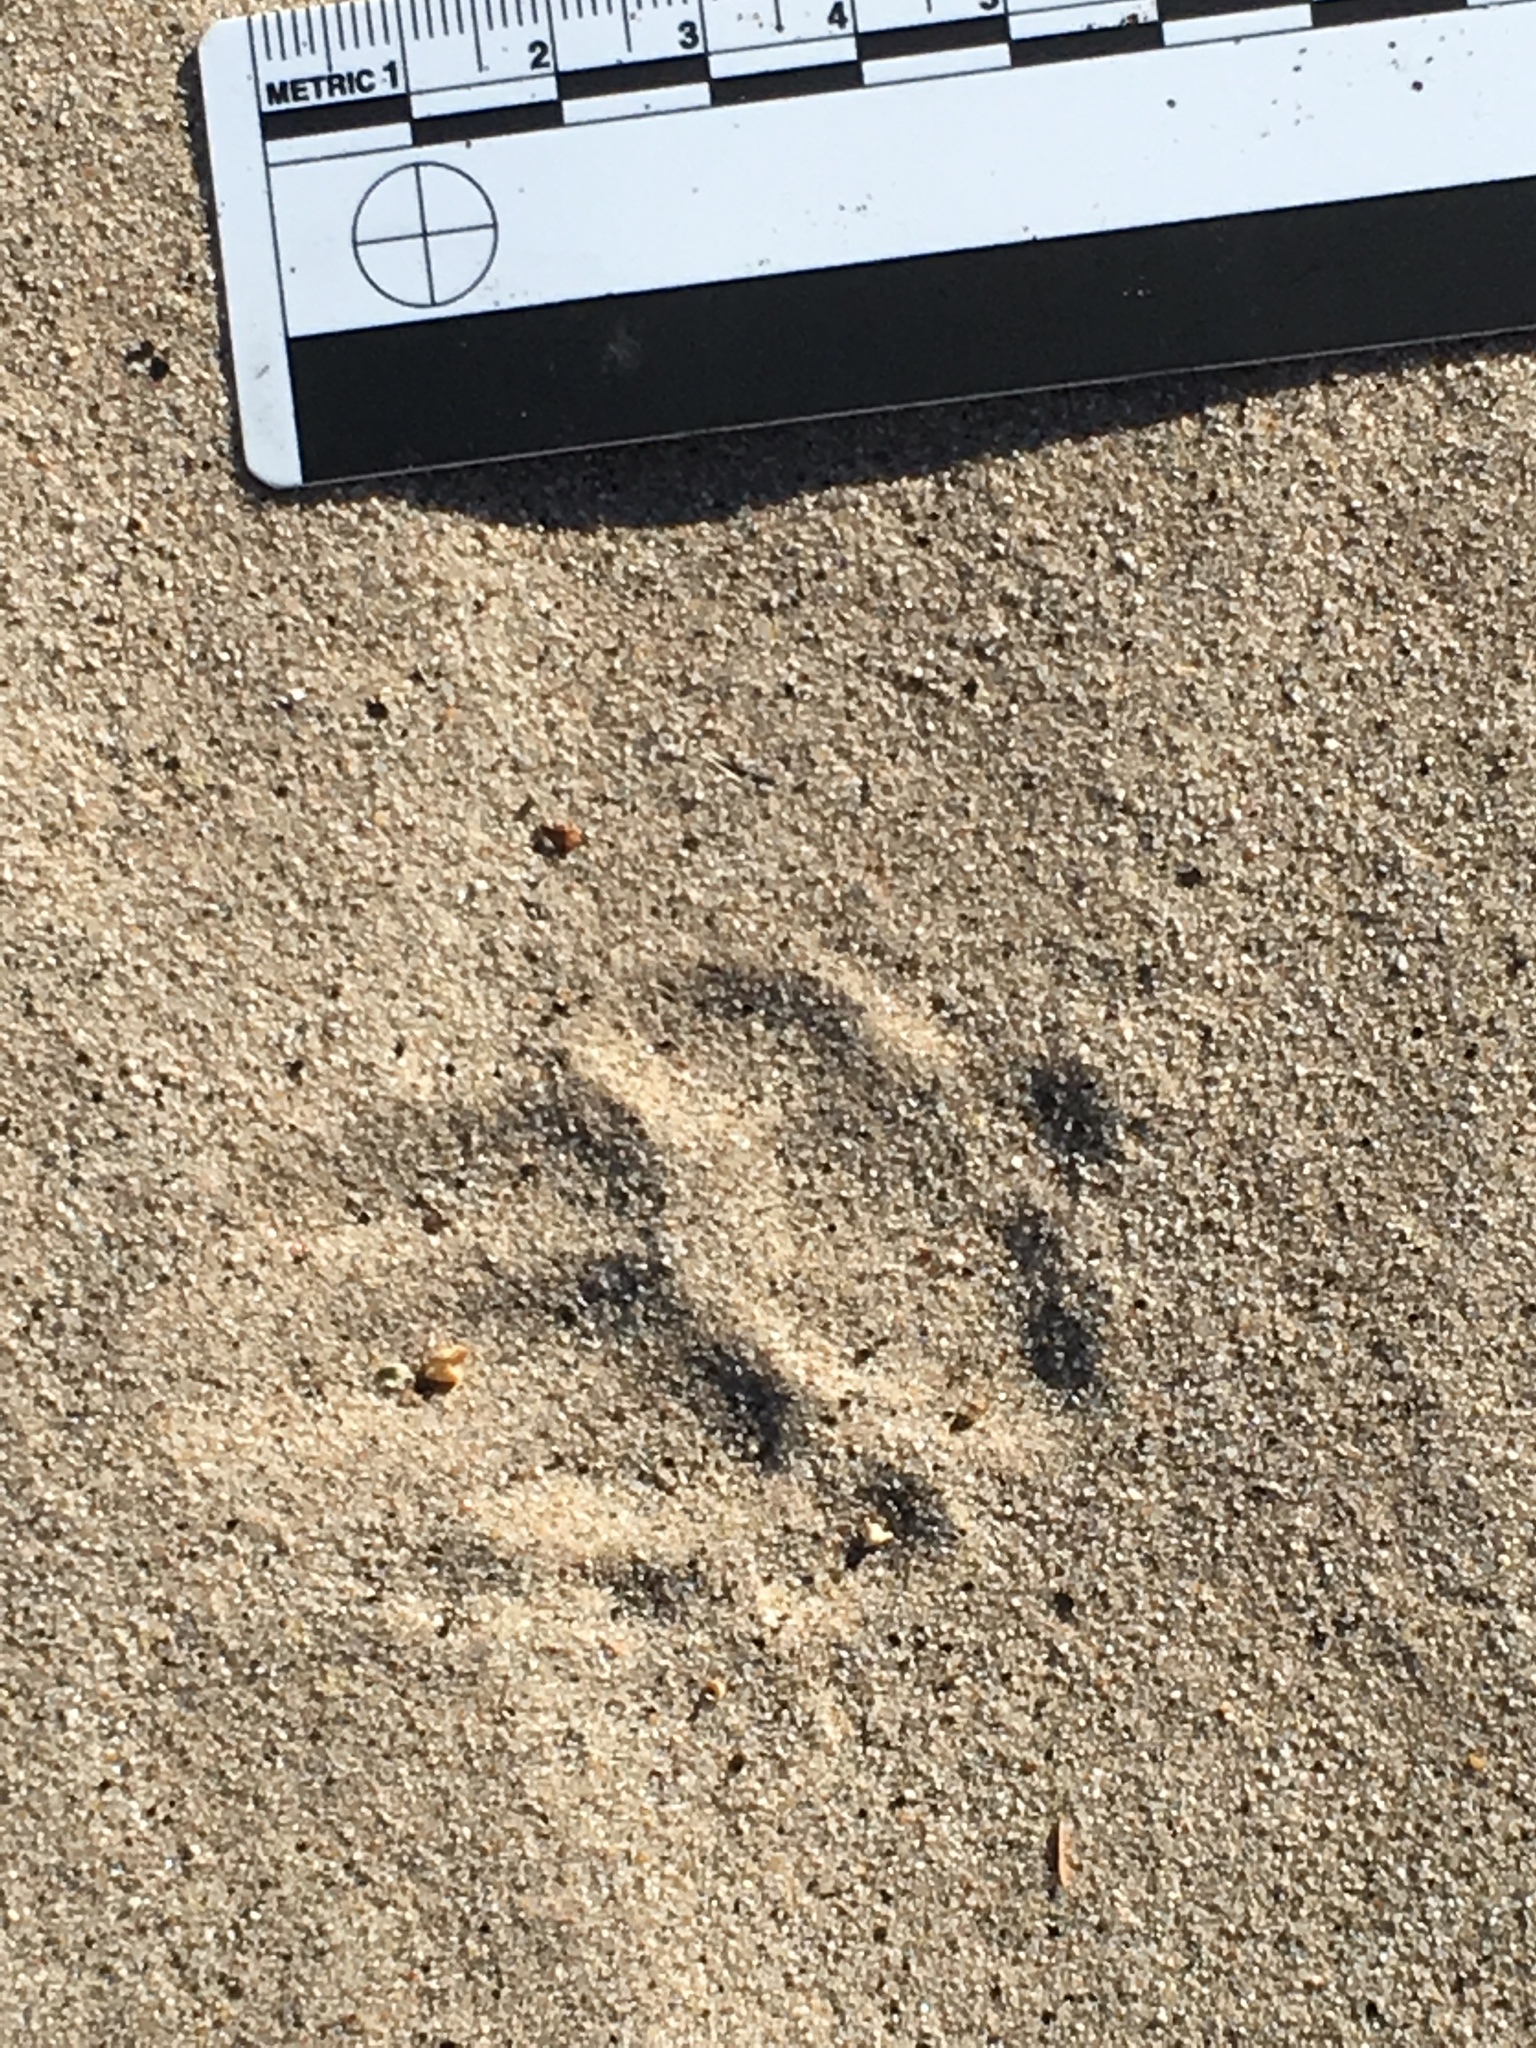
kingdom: Animalia
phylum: Chordata
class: Mammalia
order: Carnivora
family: Mustelidae
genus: Taxidea
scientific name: Taxidea taxus
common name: American badger
